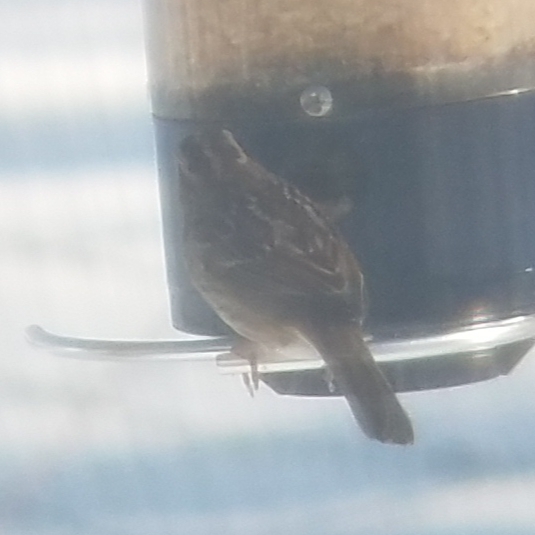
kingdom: Animalia
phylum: Chordata
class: Aves
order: Passeriformes
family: Passerellidae
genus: Zonotrichia
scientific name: Zonotrichia albicollis
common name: White-throated sparrow
